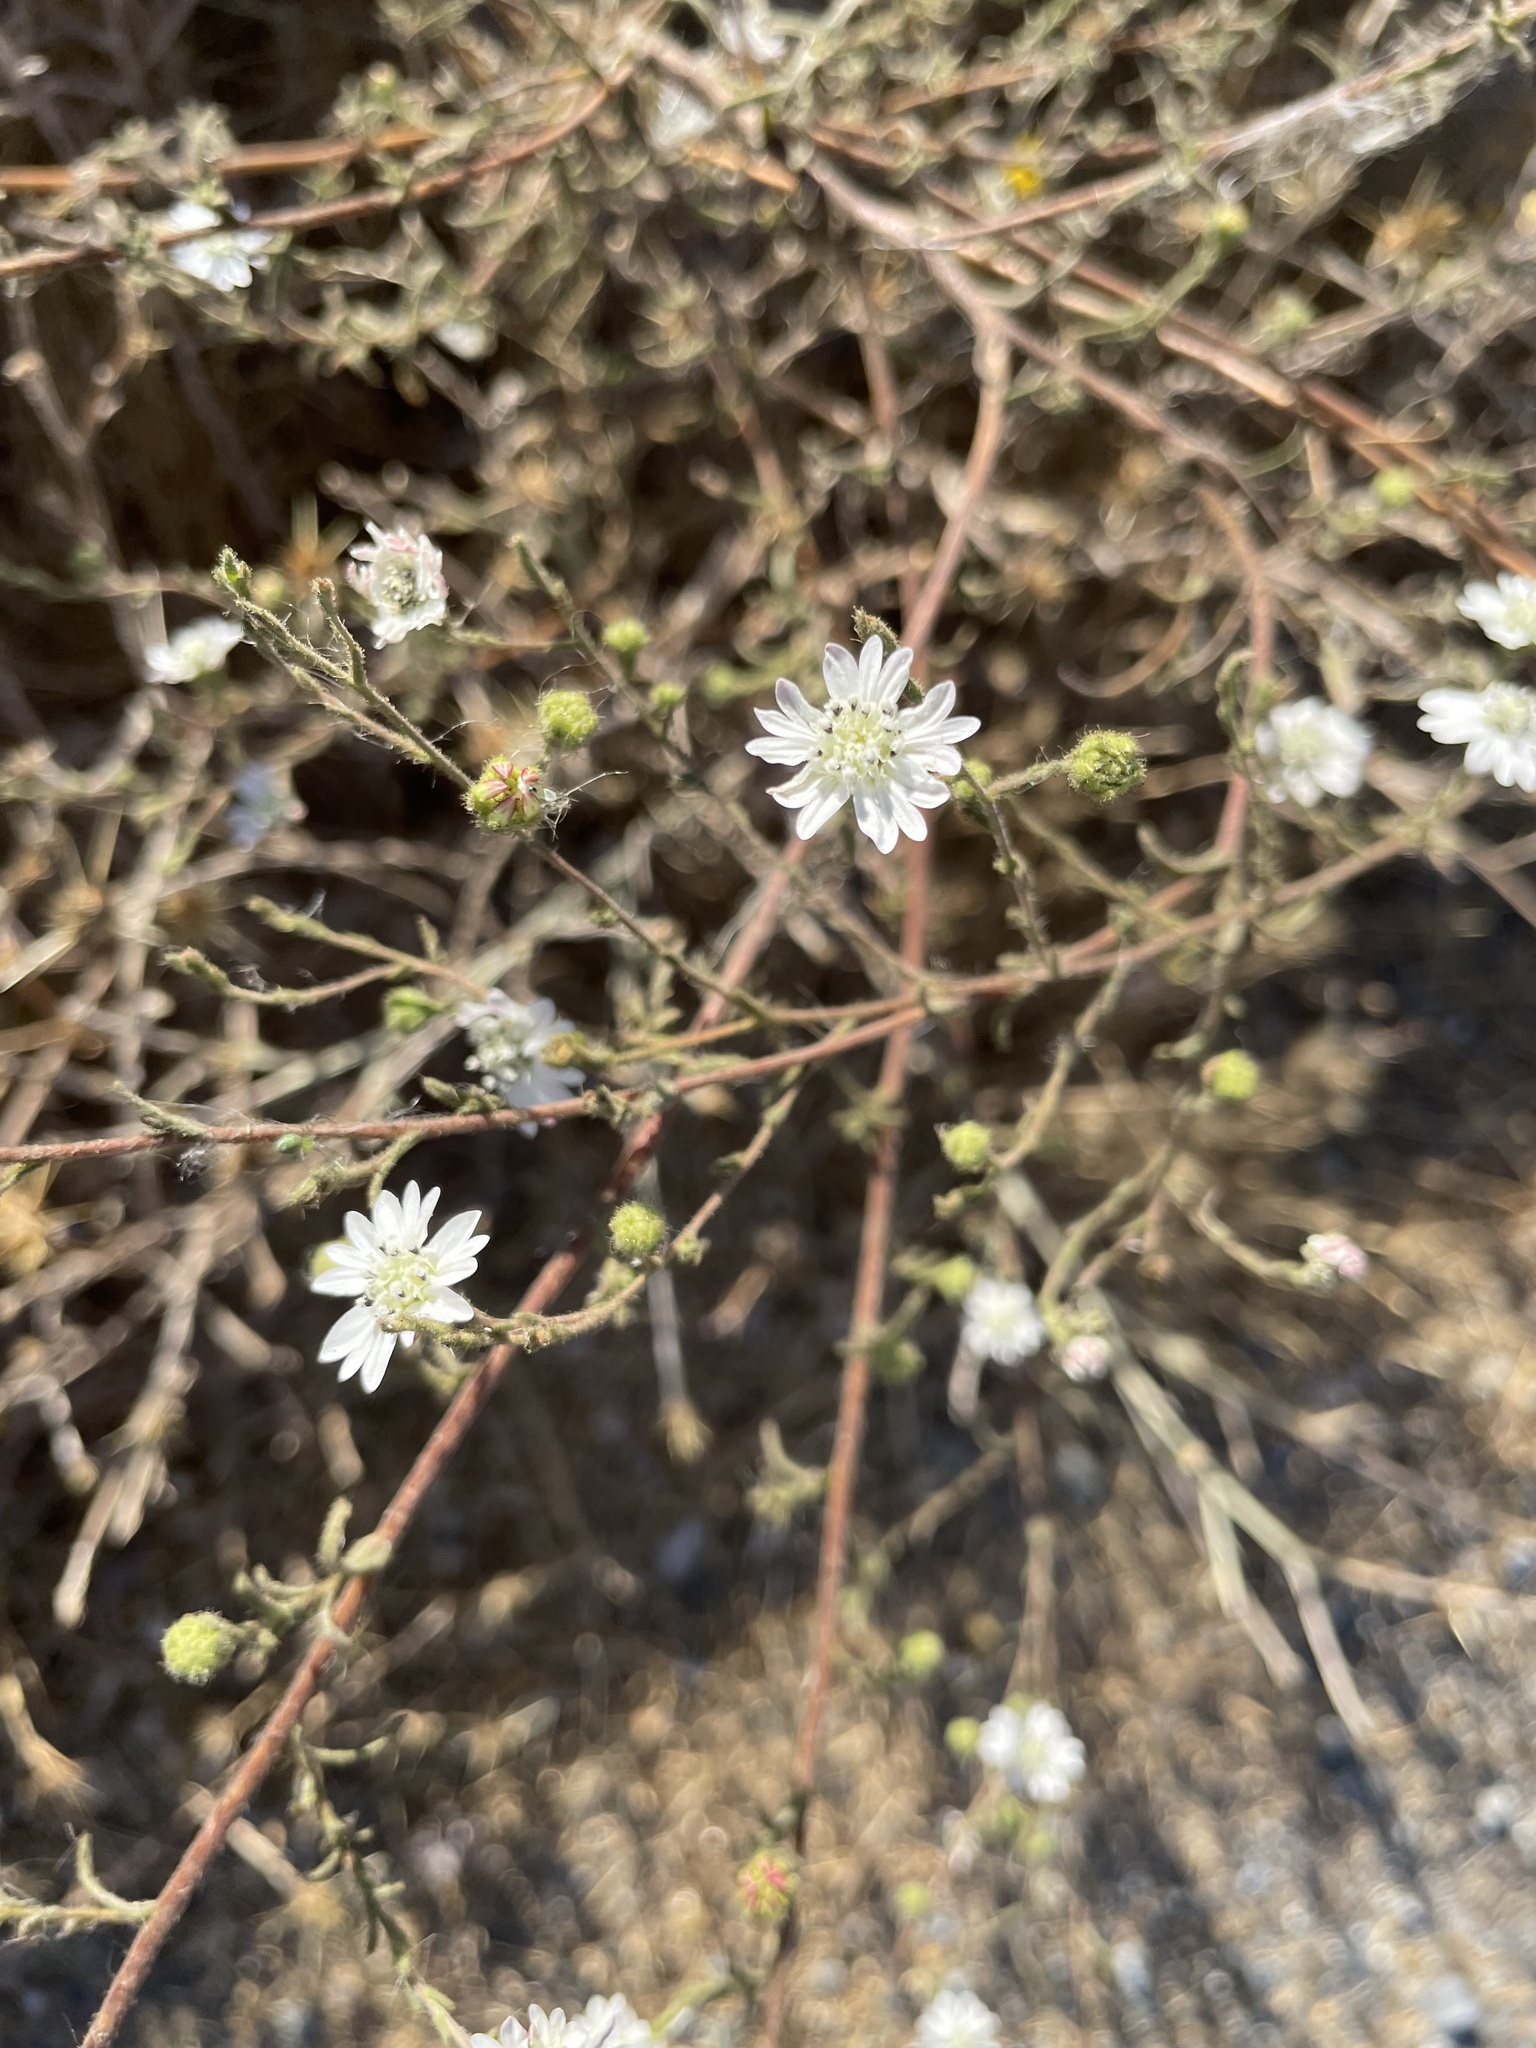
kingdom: Plantae
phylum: Tracheophyta
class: Magnoliopsida
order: Asterales
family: Asteraceae
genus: Hemizonia
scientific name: Hemizonia congesta
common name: Hayfield tarweed
